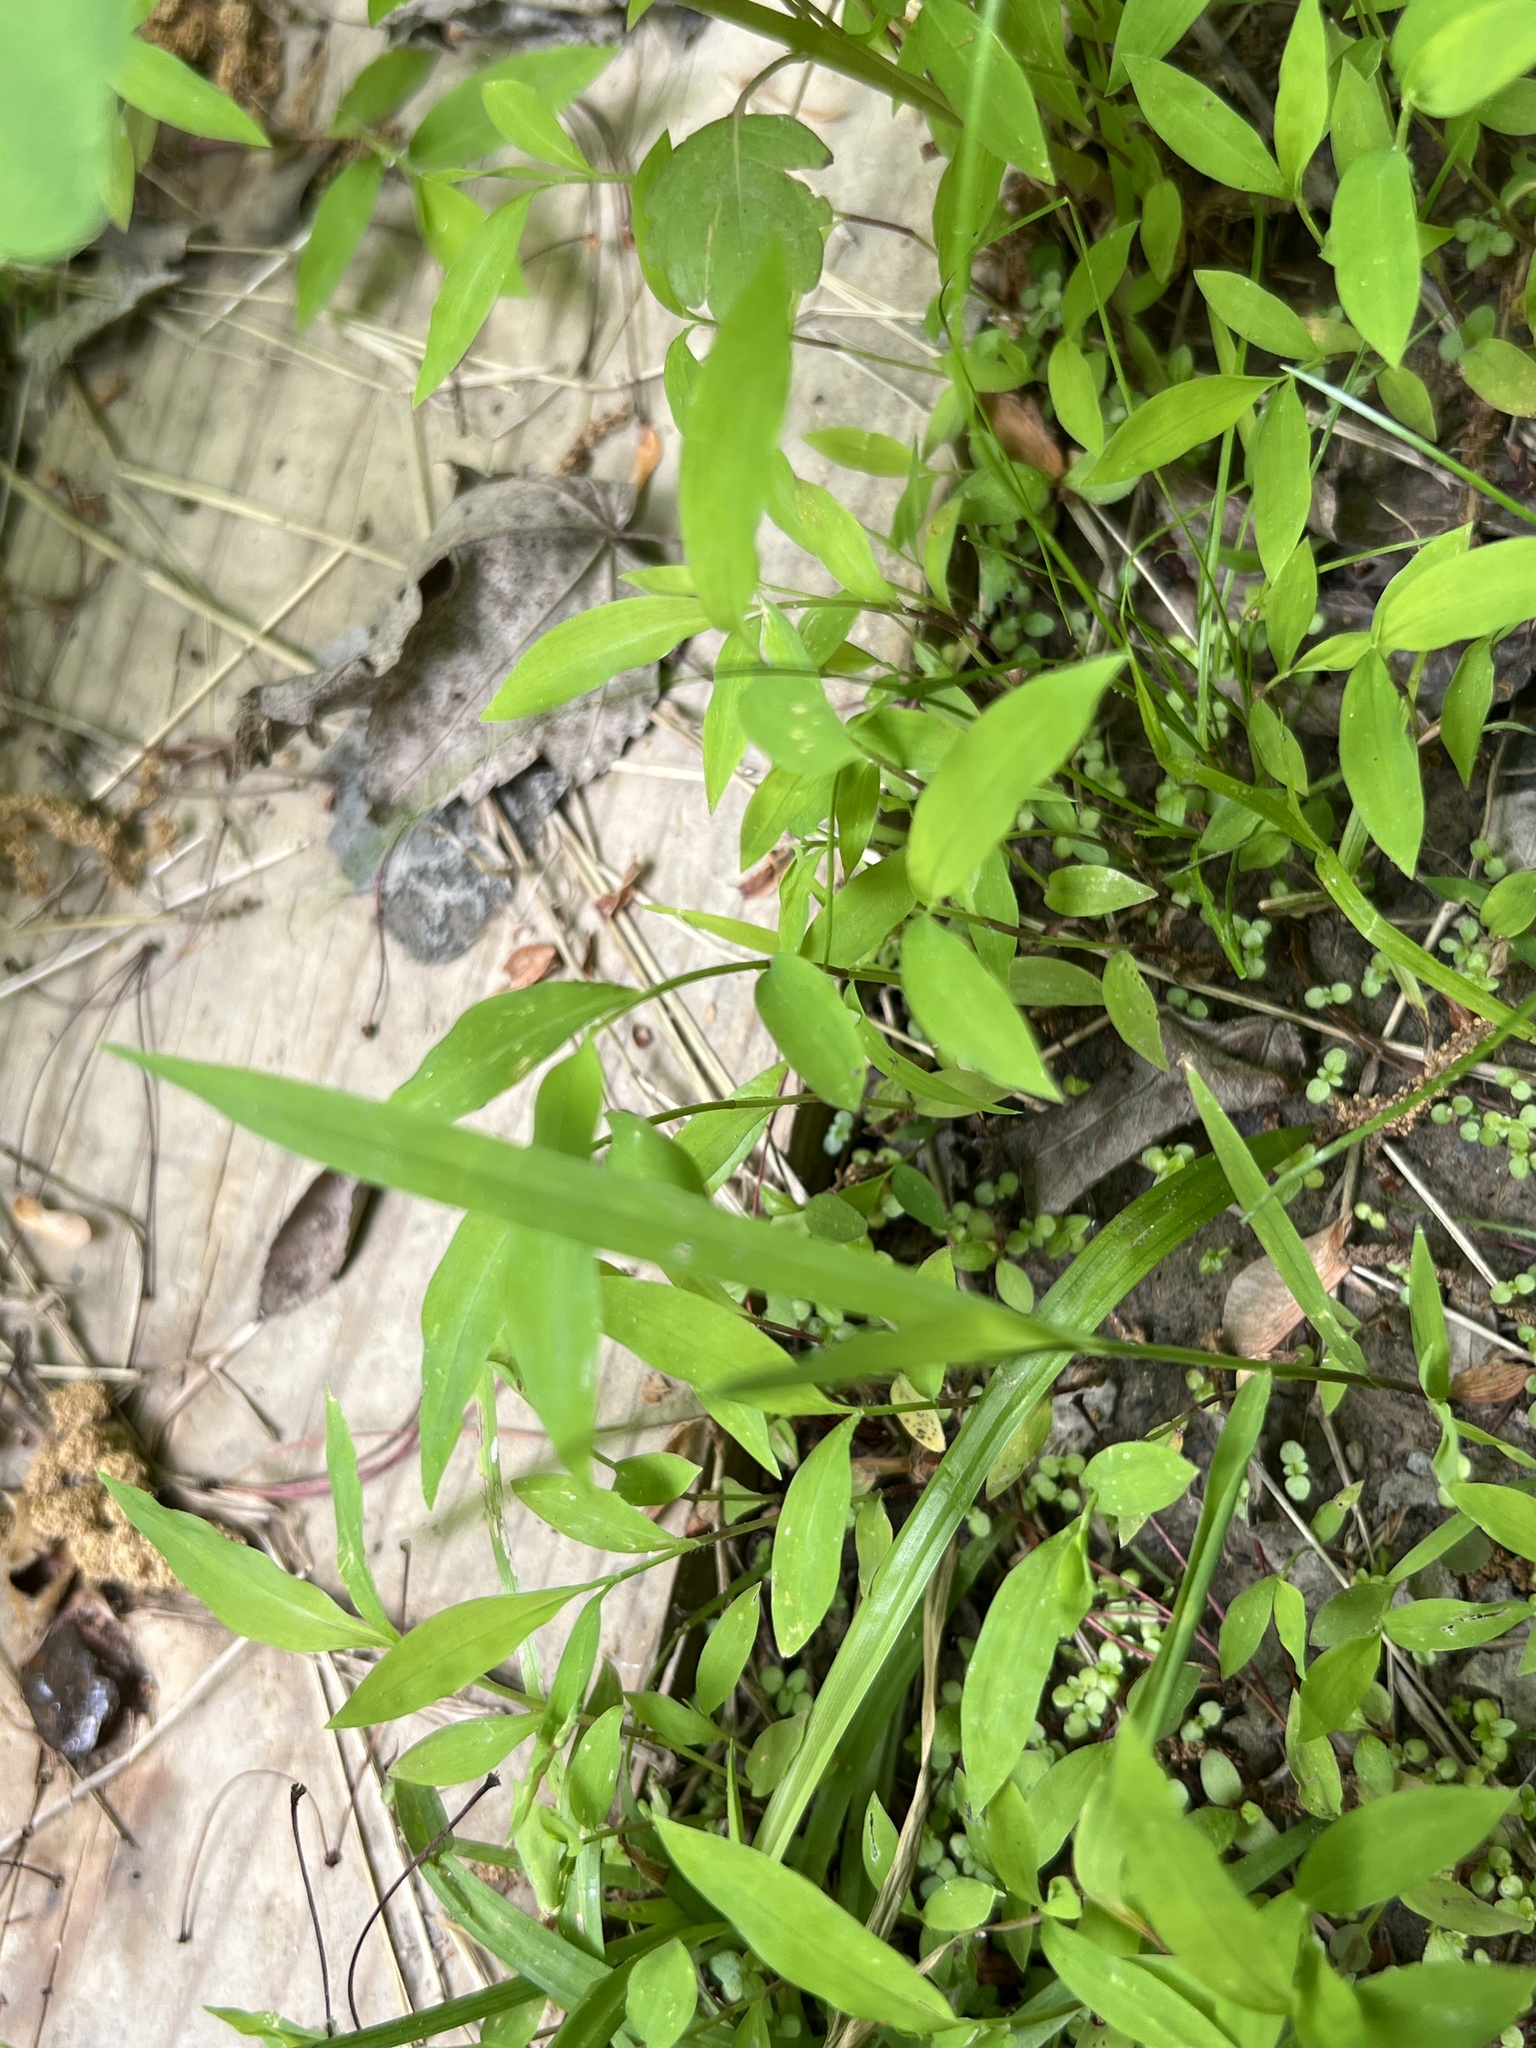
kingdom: Plantae
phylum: Tracheophyta
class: Liliopsida
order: Poales
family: Poaceae
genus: Microstegium
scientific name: Microstegium vimineum
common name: Japanese stiltgrass
